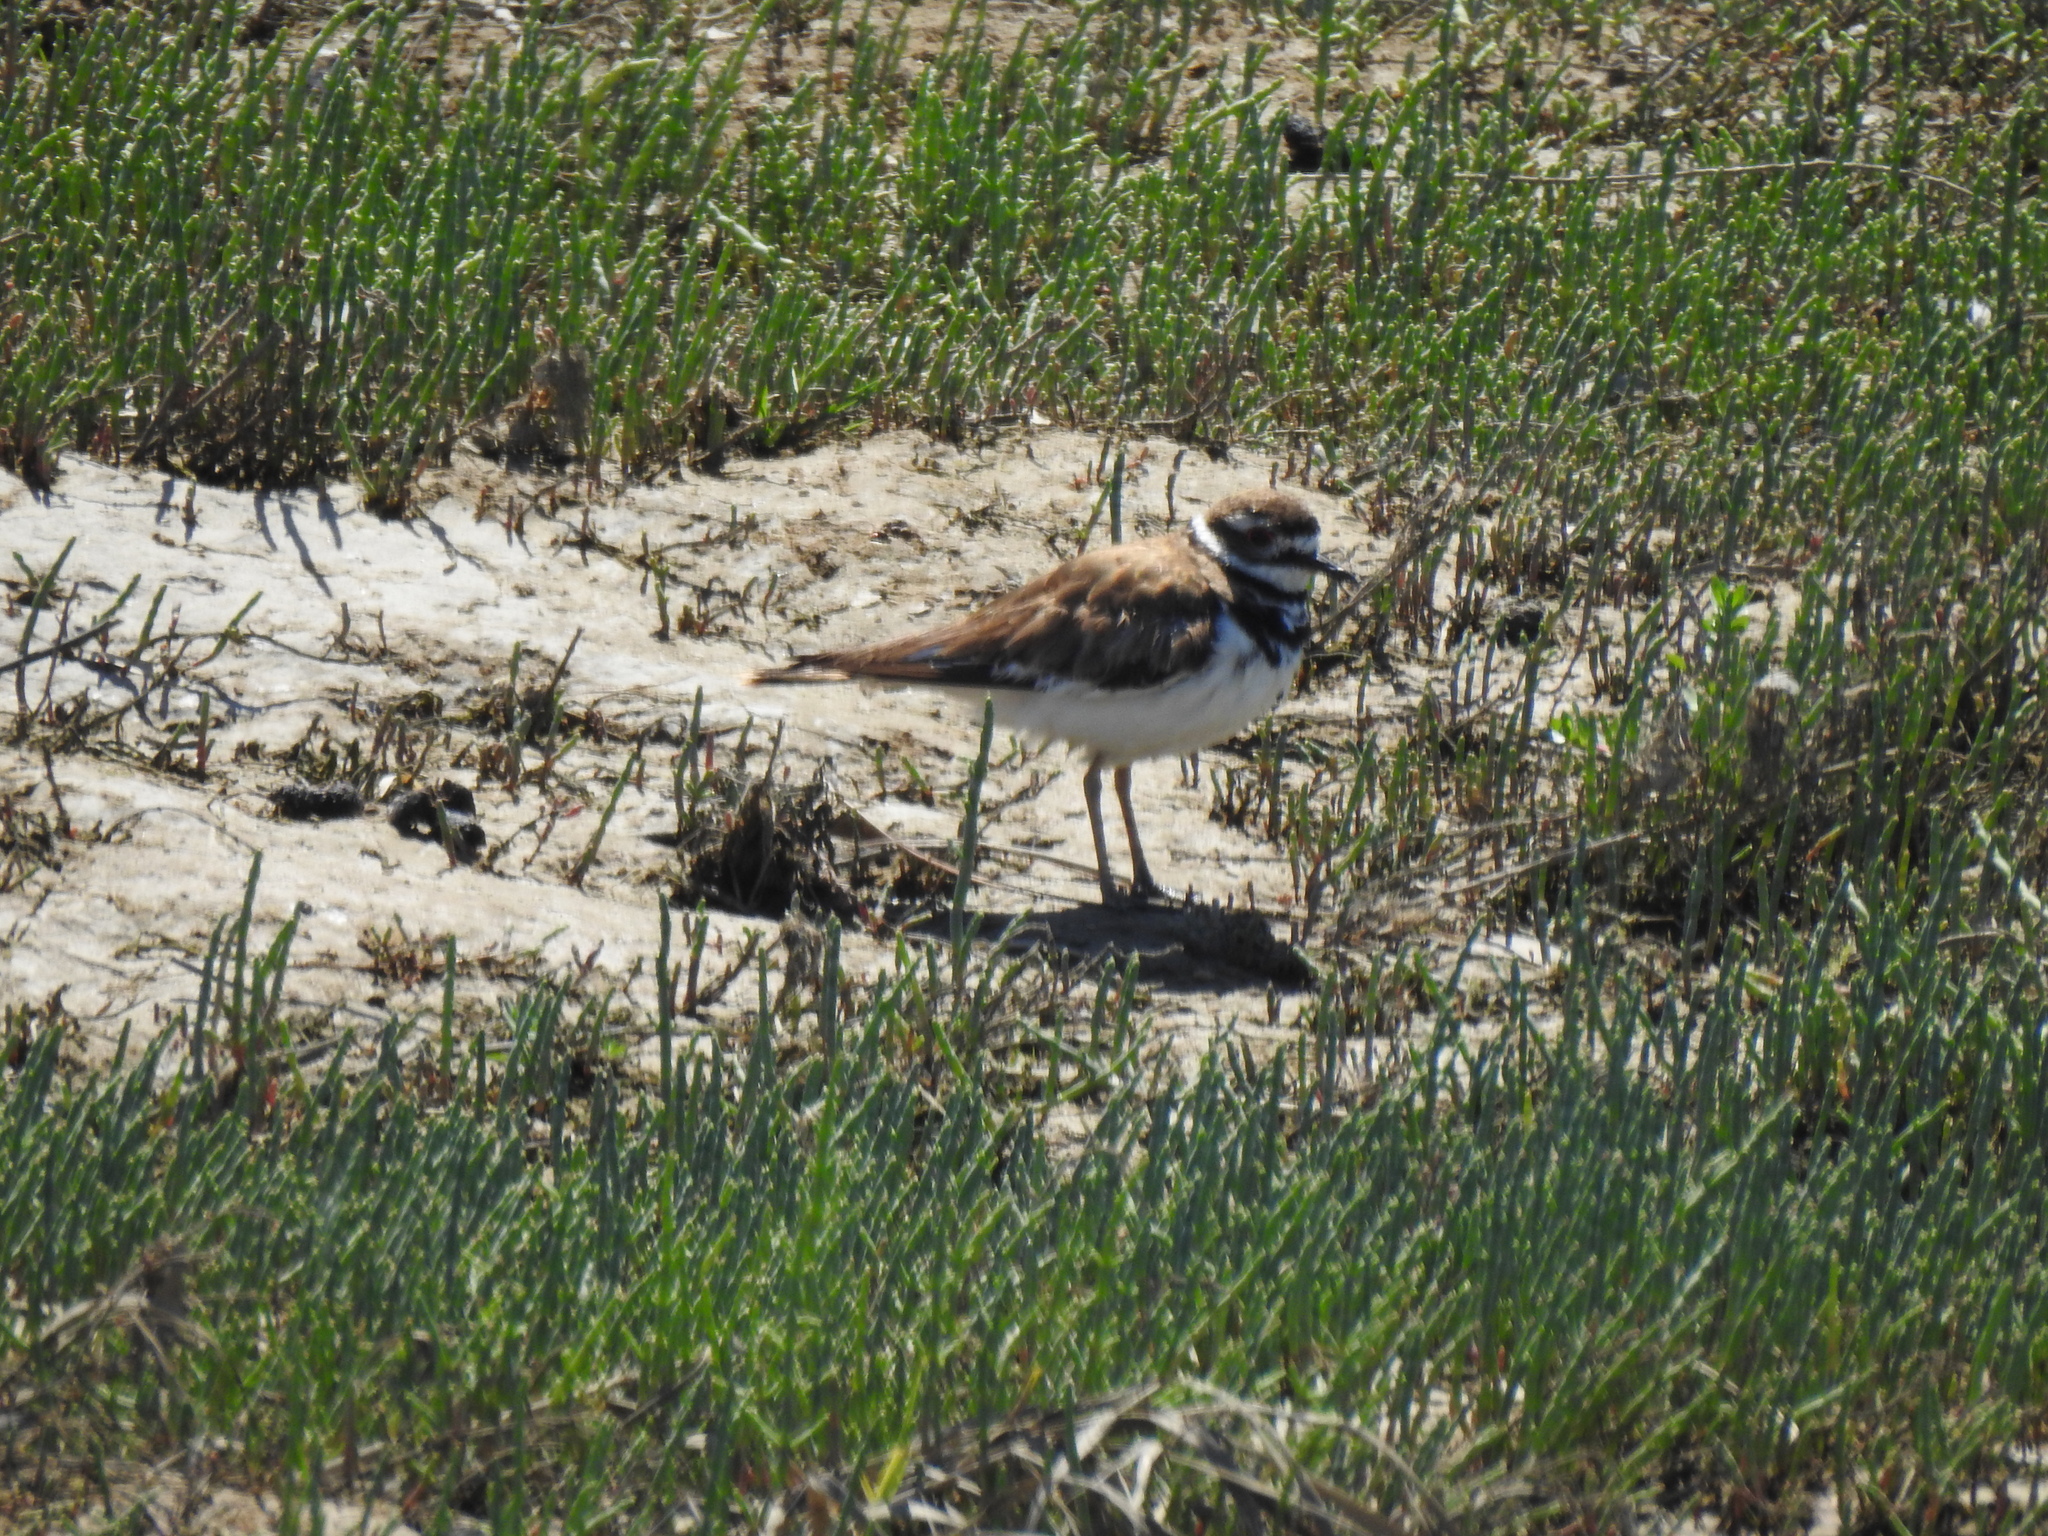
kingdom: Animalia
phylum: Chordata
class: Aves
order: Charadriiformes
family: Charadriidae
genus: Charadrius
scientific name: Charadrius vociferus
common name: Killdeer
